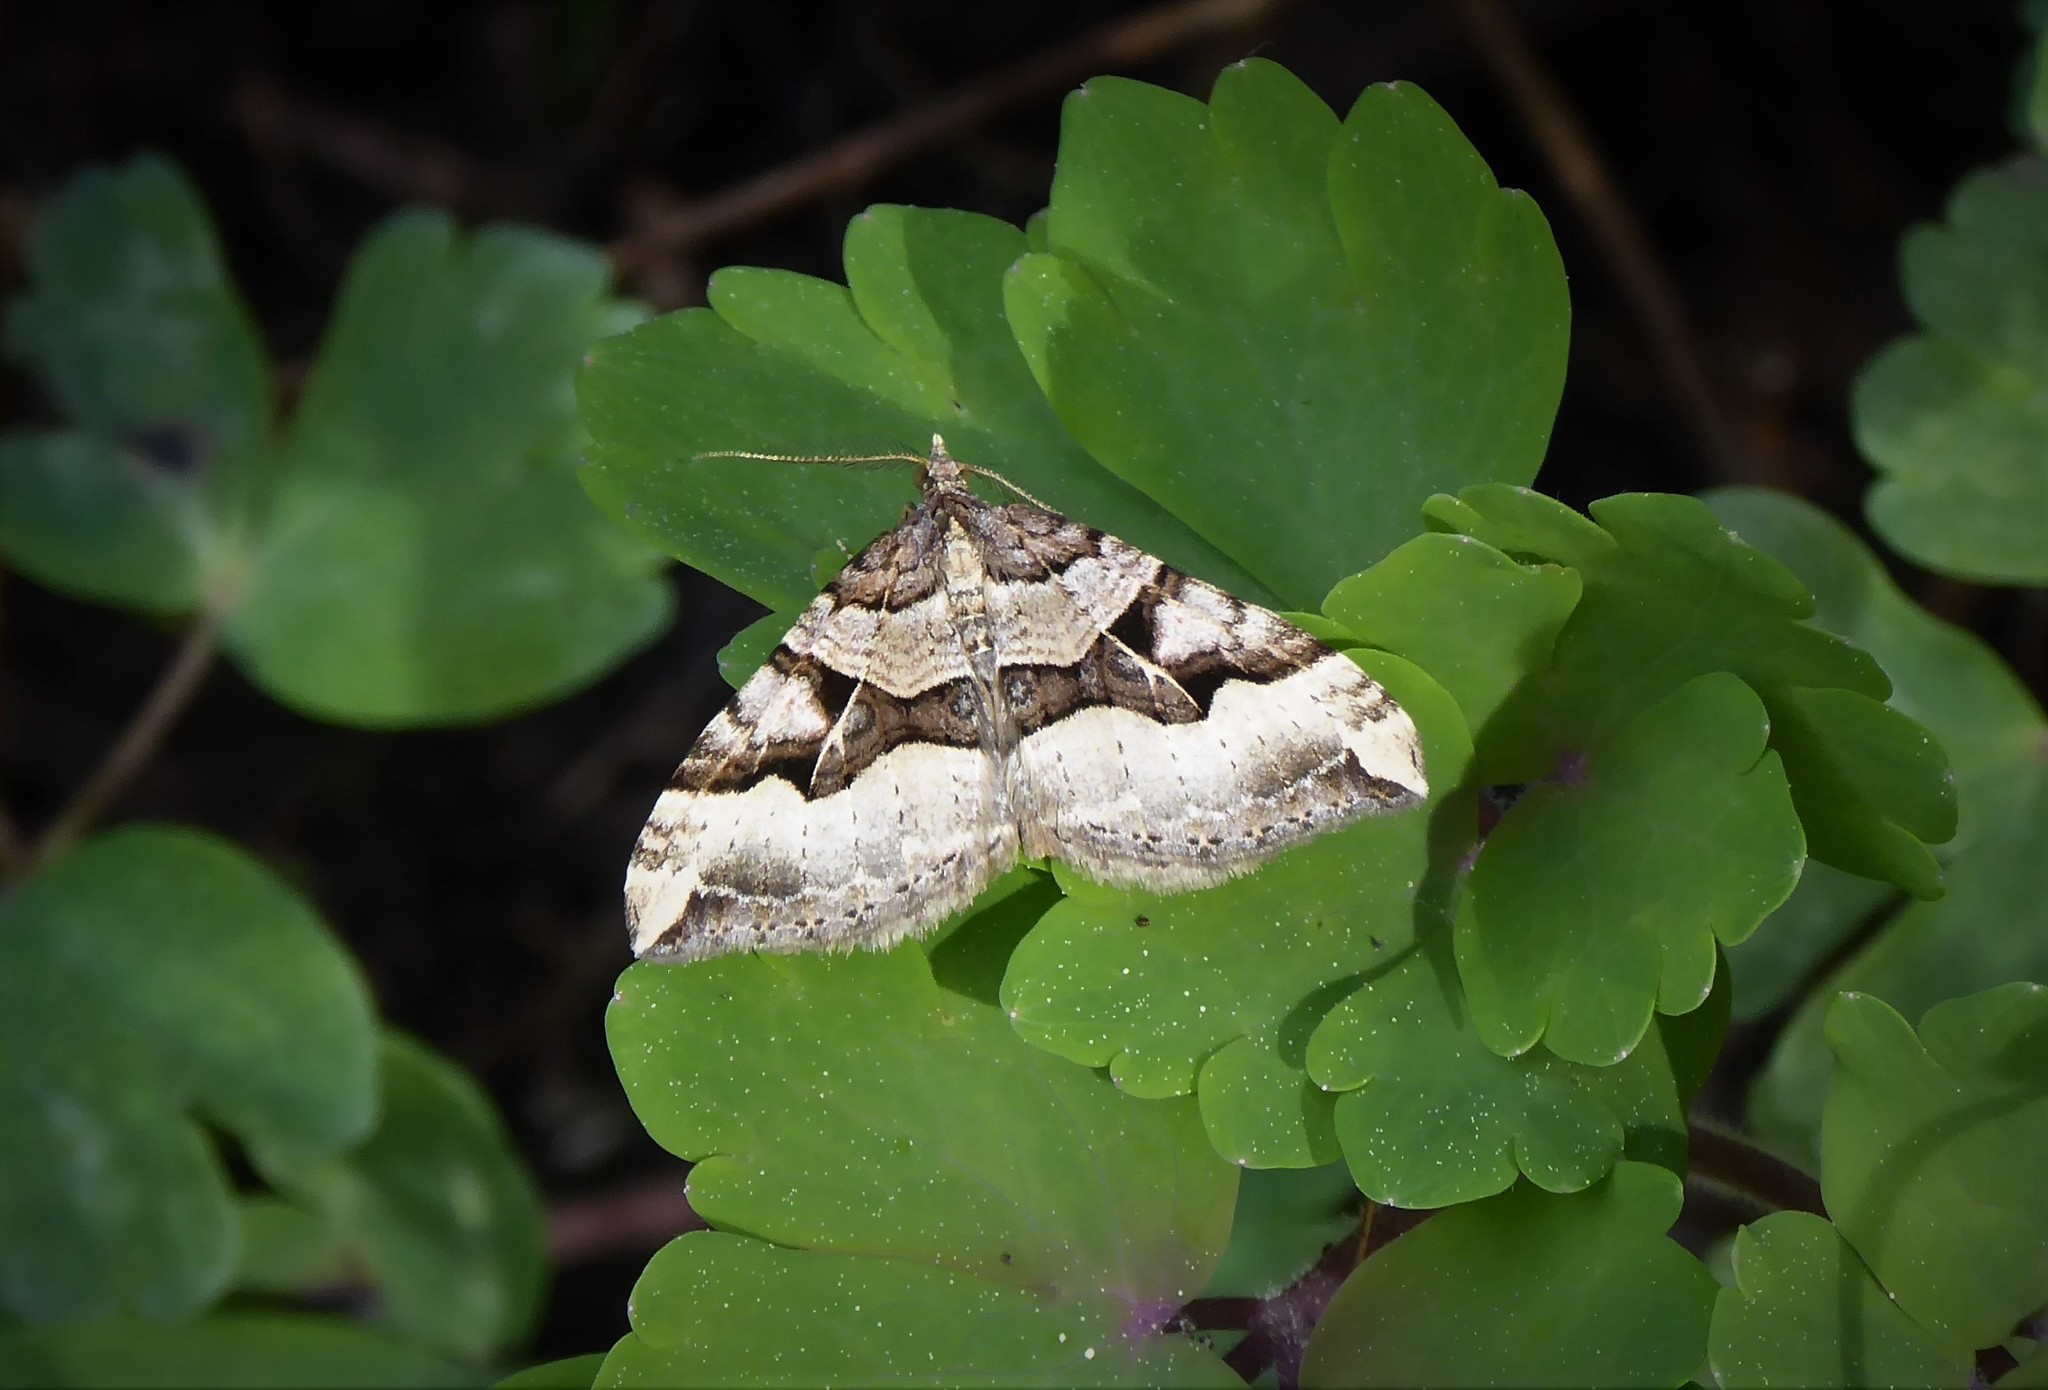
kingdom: Animalia
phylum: Arthropoda
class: Insecta
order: Lepidoptera
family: Geometridae
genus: Xanthorhoe
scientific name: Xanthorhoe semifissata
